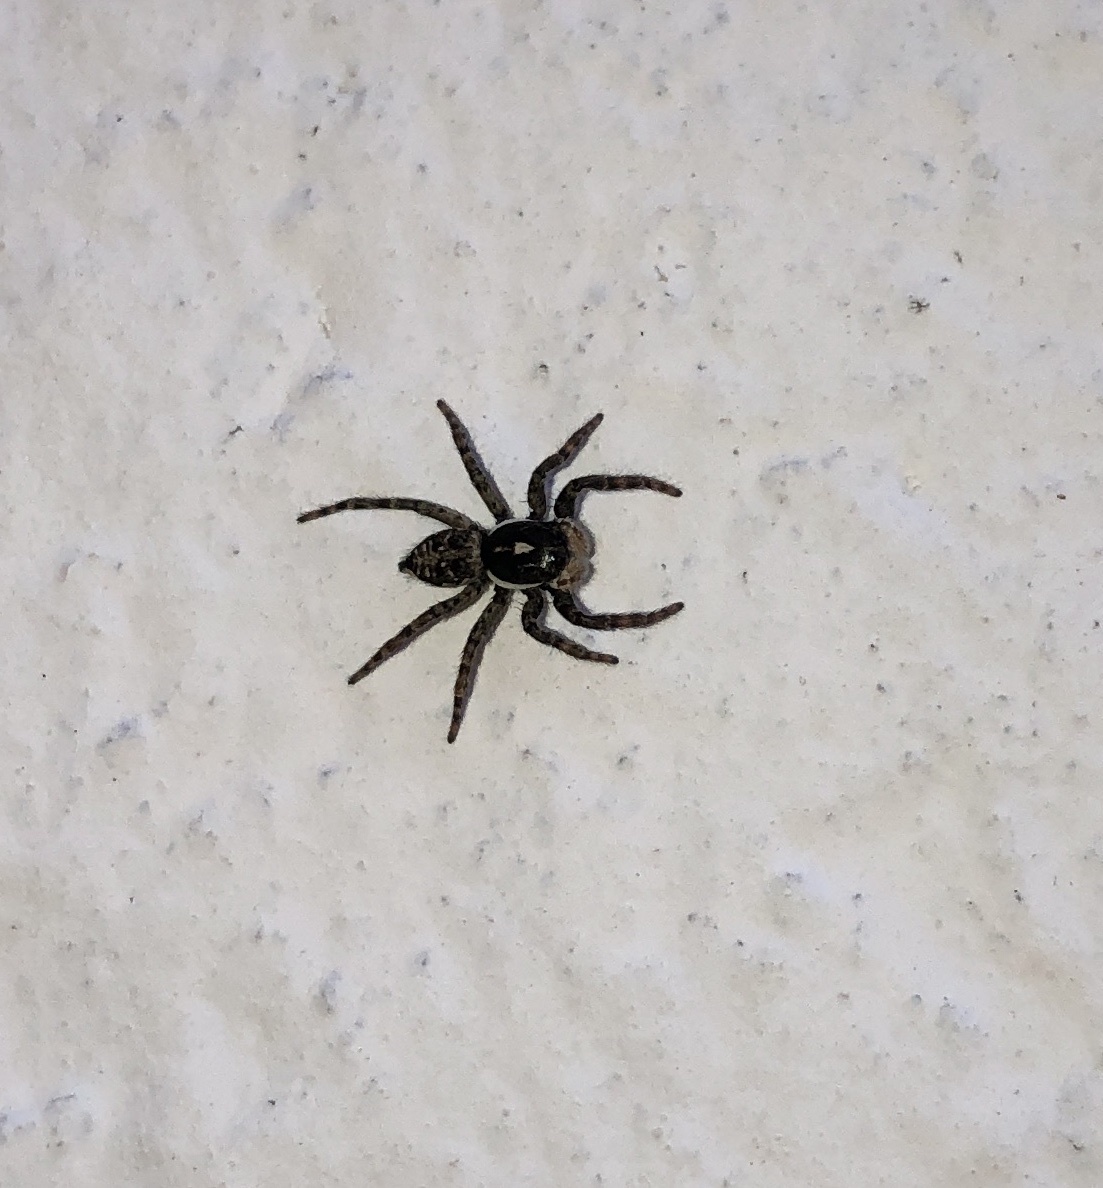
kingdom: Animalia
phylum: Arthropoda
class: Arachnida
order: Araneae
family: Salticidae
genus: Menemerus
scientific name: Menemerus semilimbatus
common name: Jumping spider
